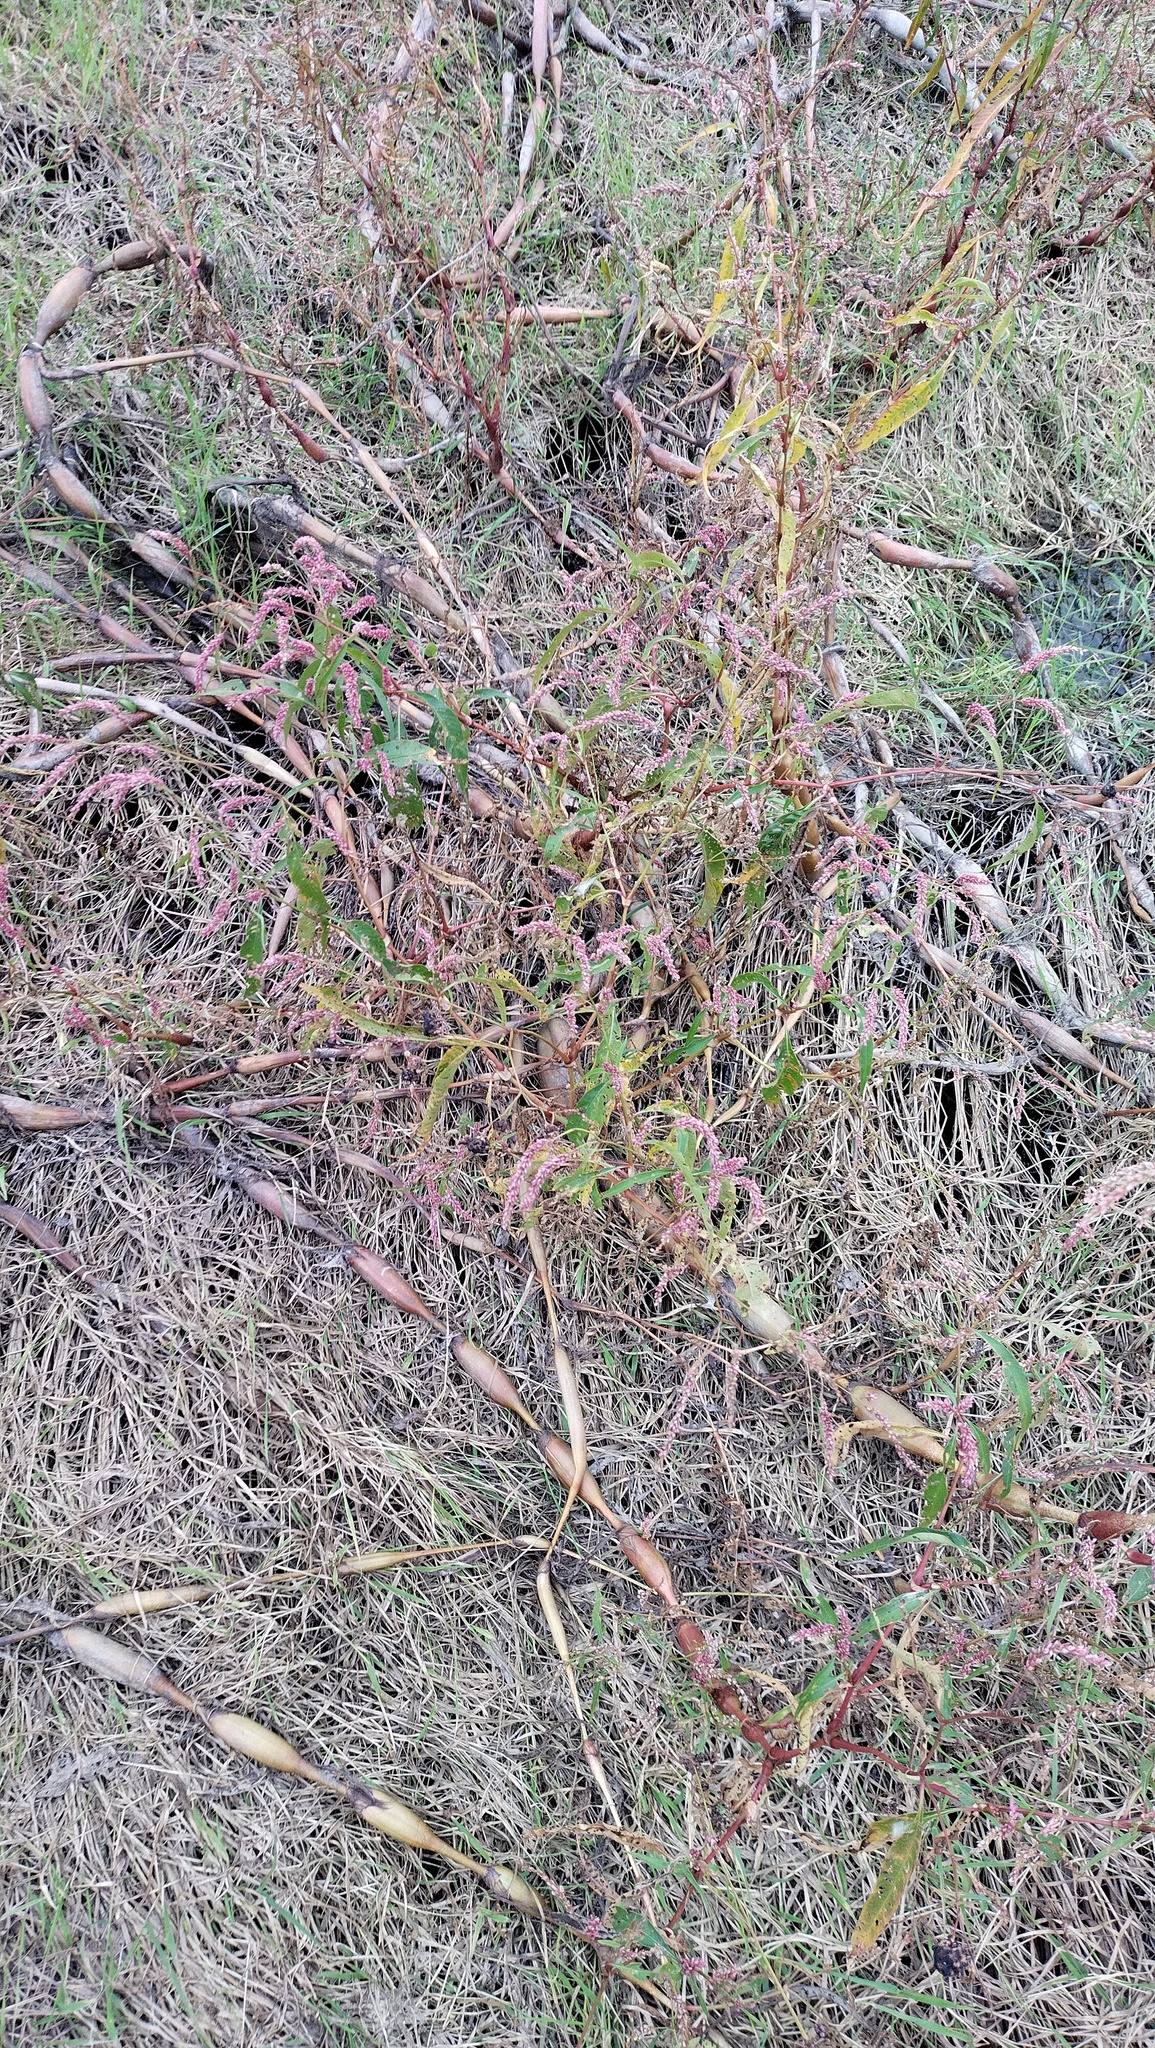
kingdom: Plantae
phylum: Tracheophyta
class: Magnoliopsida
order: Caryophyllales
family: Polygonaceae
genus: Persicaria
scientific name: Persicaria lapathifolia
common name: Curlytop knotweed
